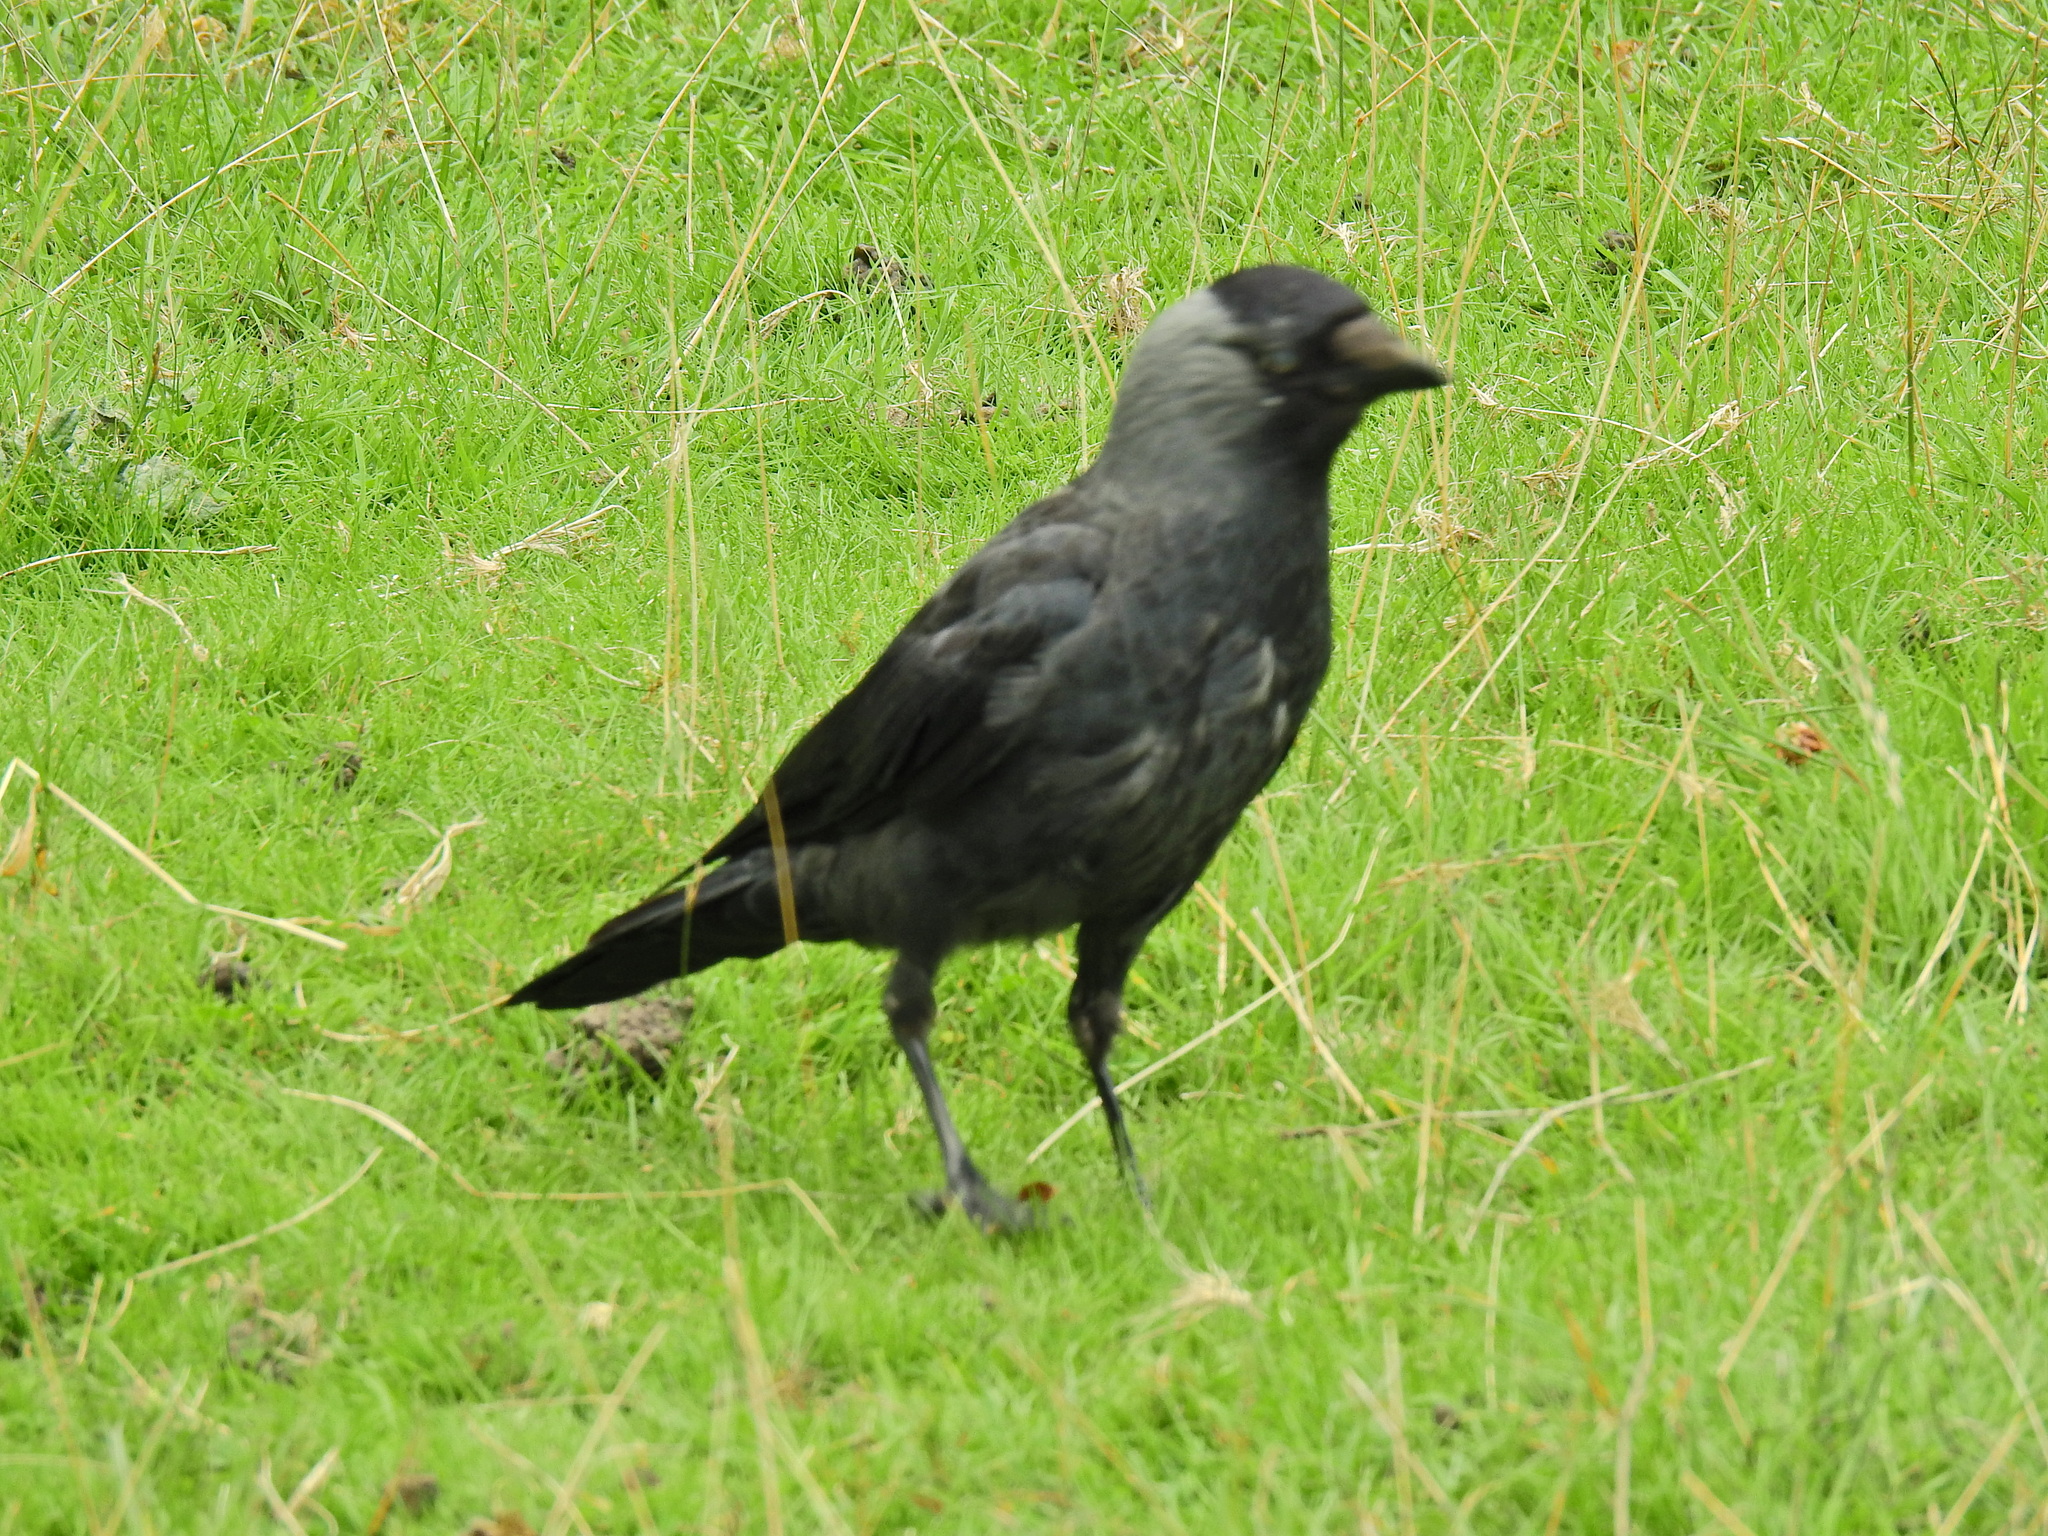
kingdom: Animalia
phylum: Chordata
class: Aves
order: Passeriformes
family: Corvidae
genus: Coloeus
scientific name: Coloeus monedula
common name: Western jackdaw
